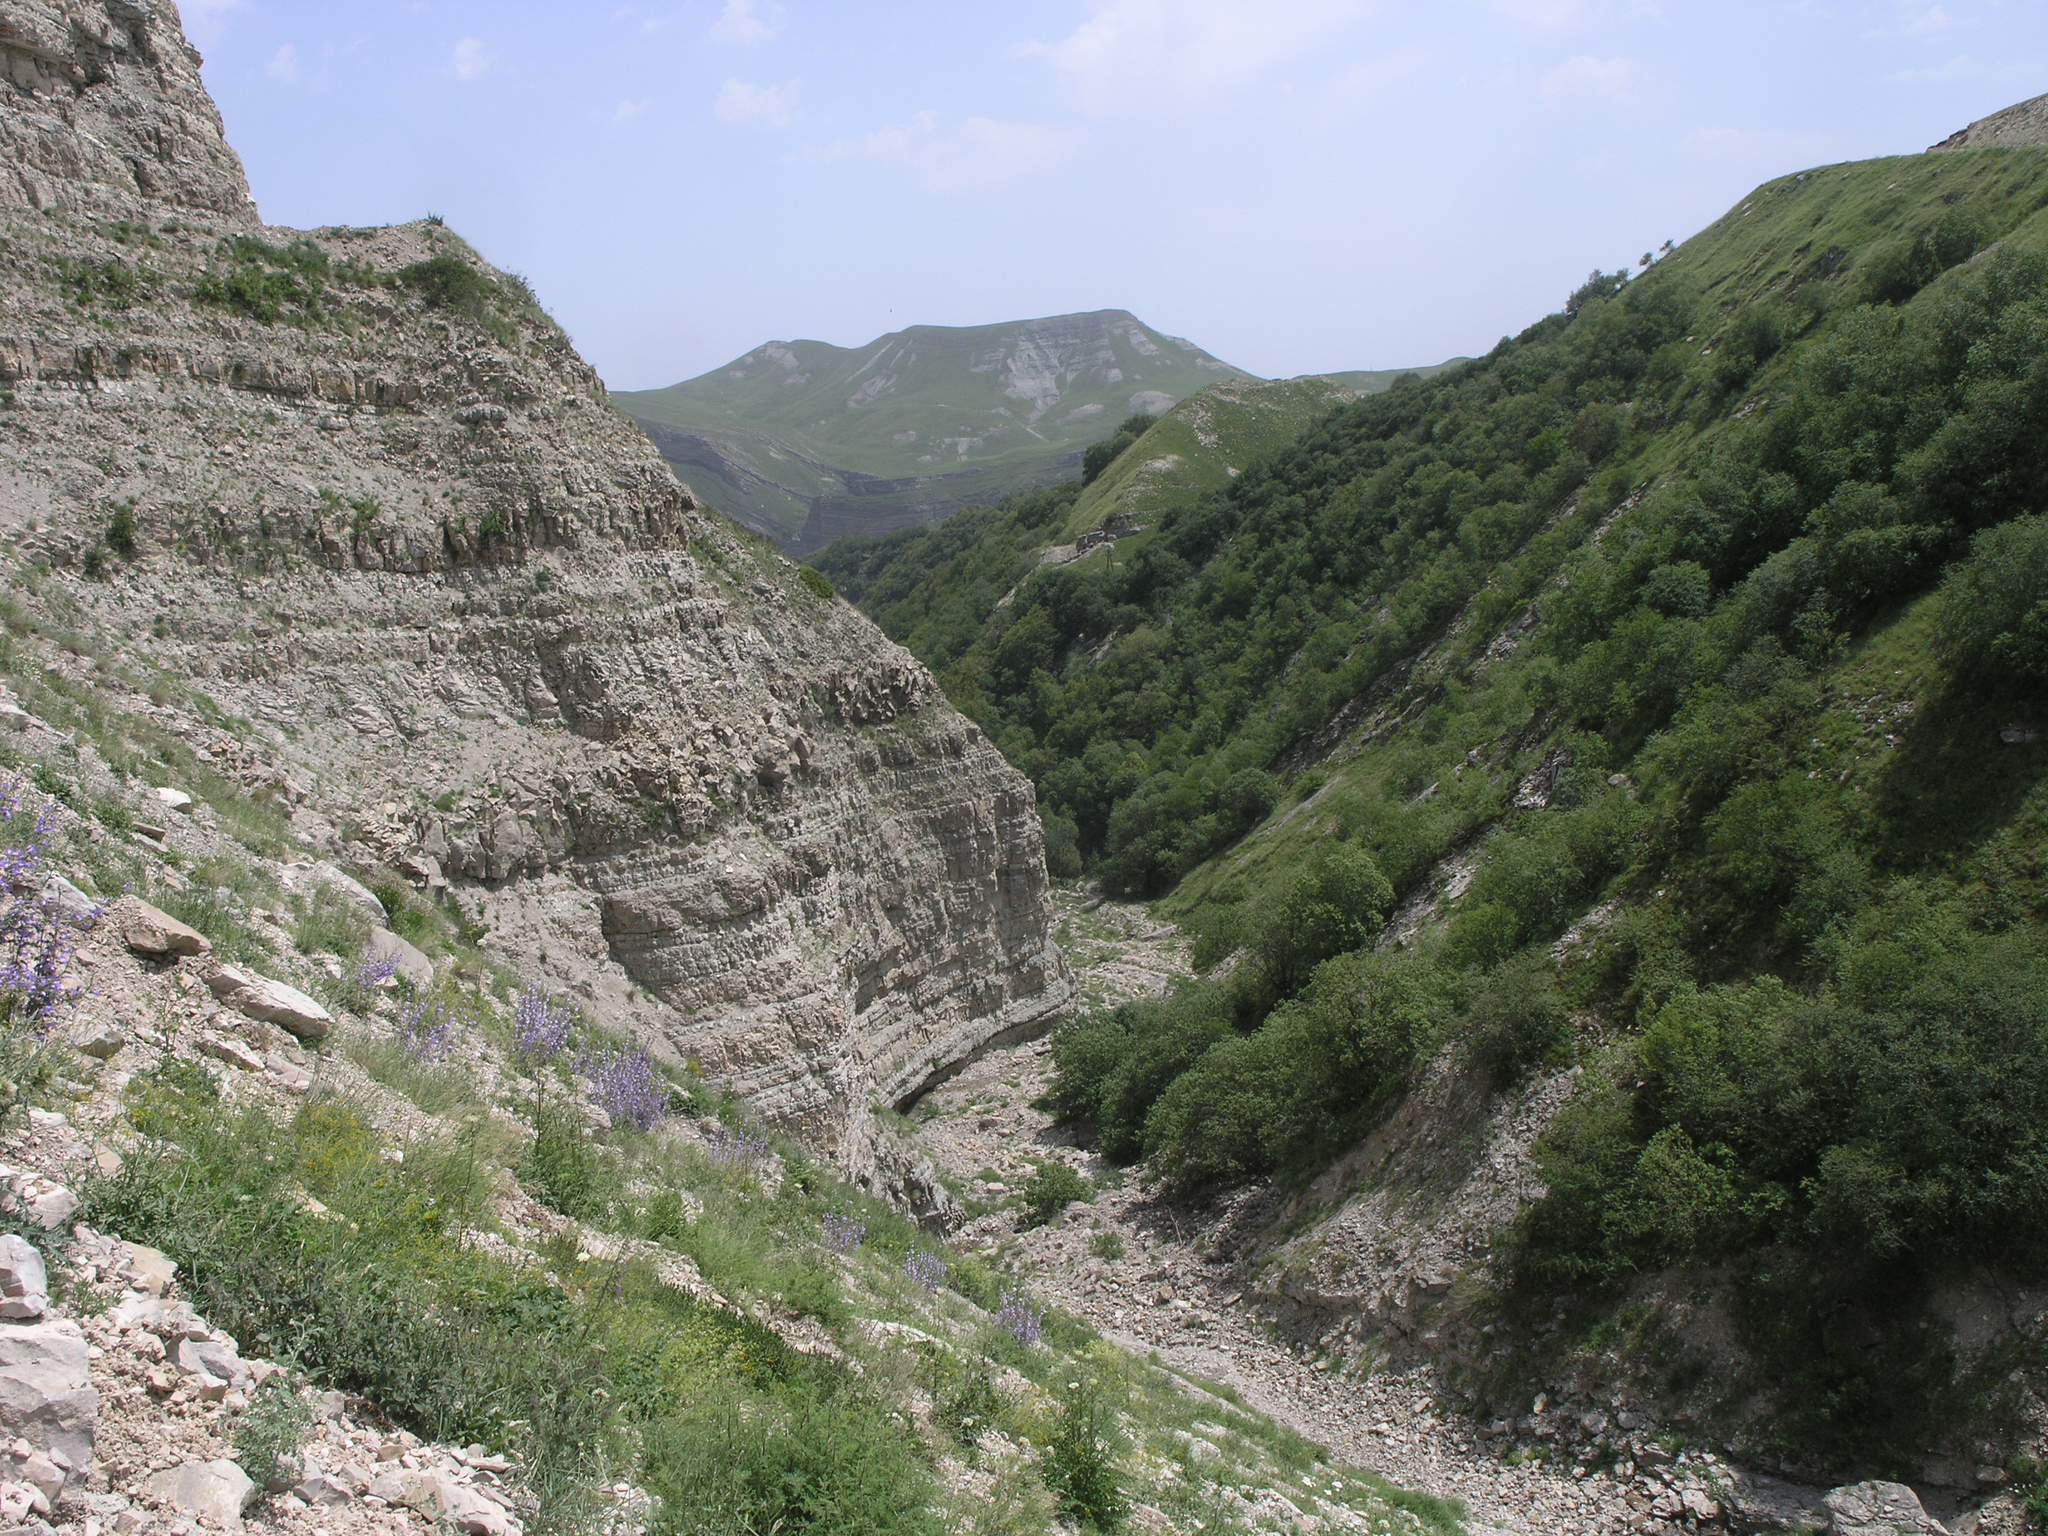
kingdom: Plantae
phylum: Tracheophyta
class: Magnoliopsida
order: Asterales
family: Campanulaceae
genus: Campanula
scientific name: Campanula sarmatica
